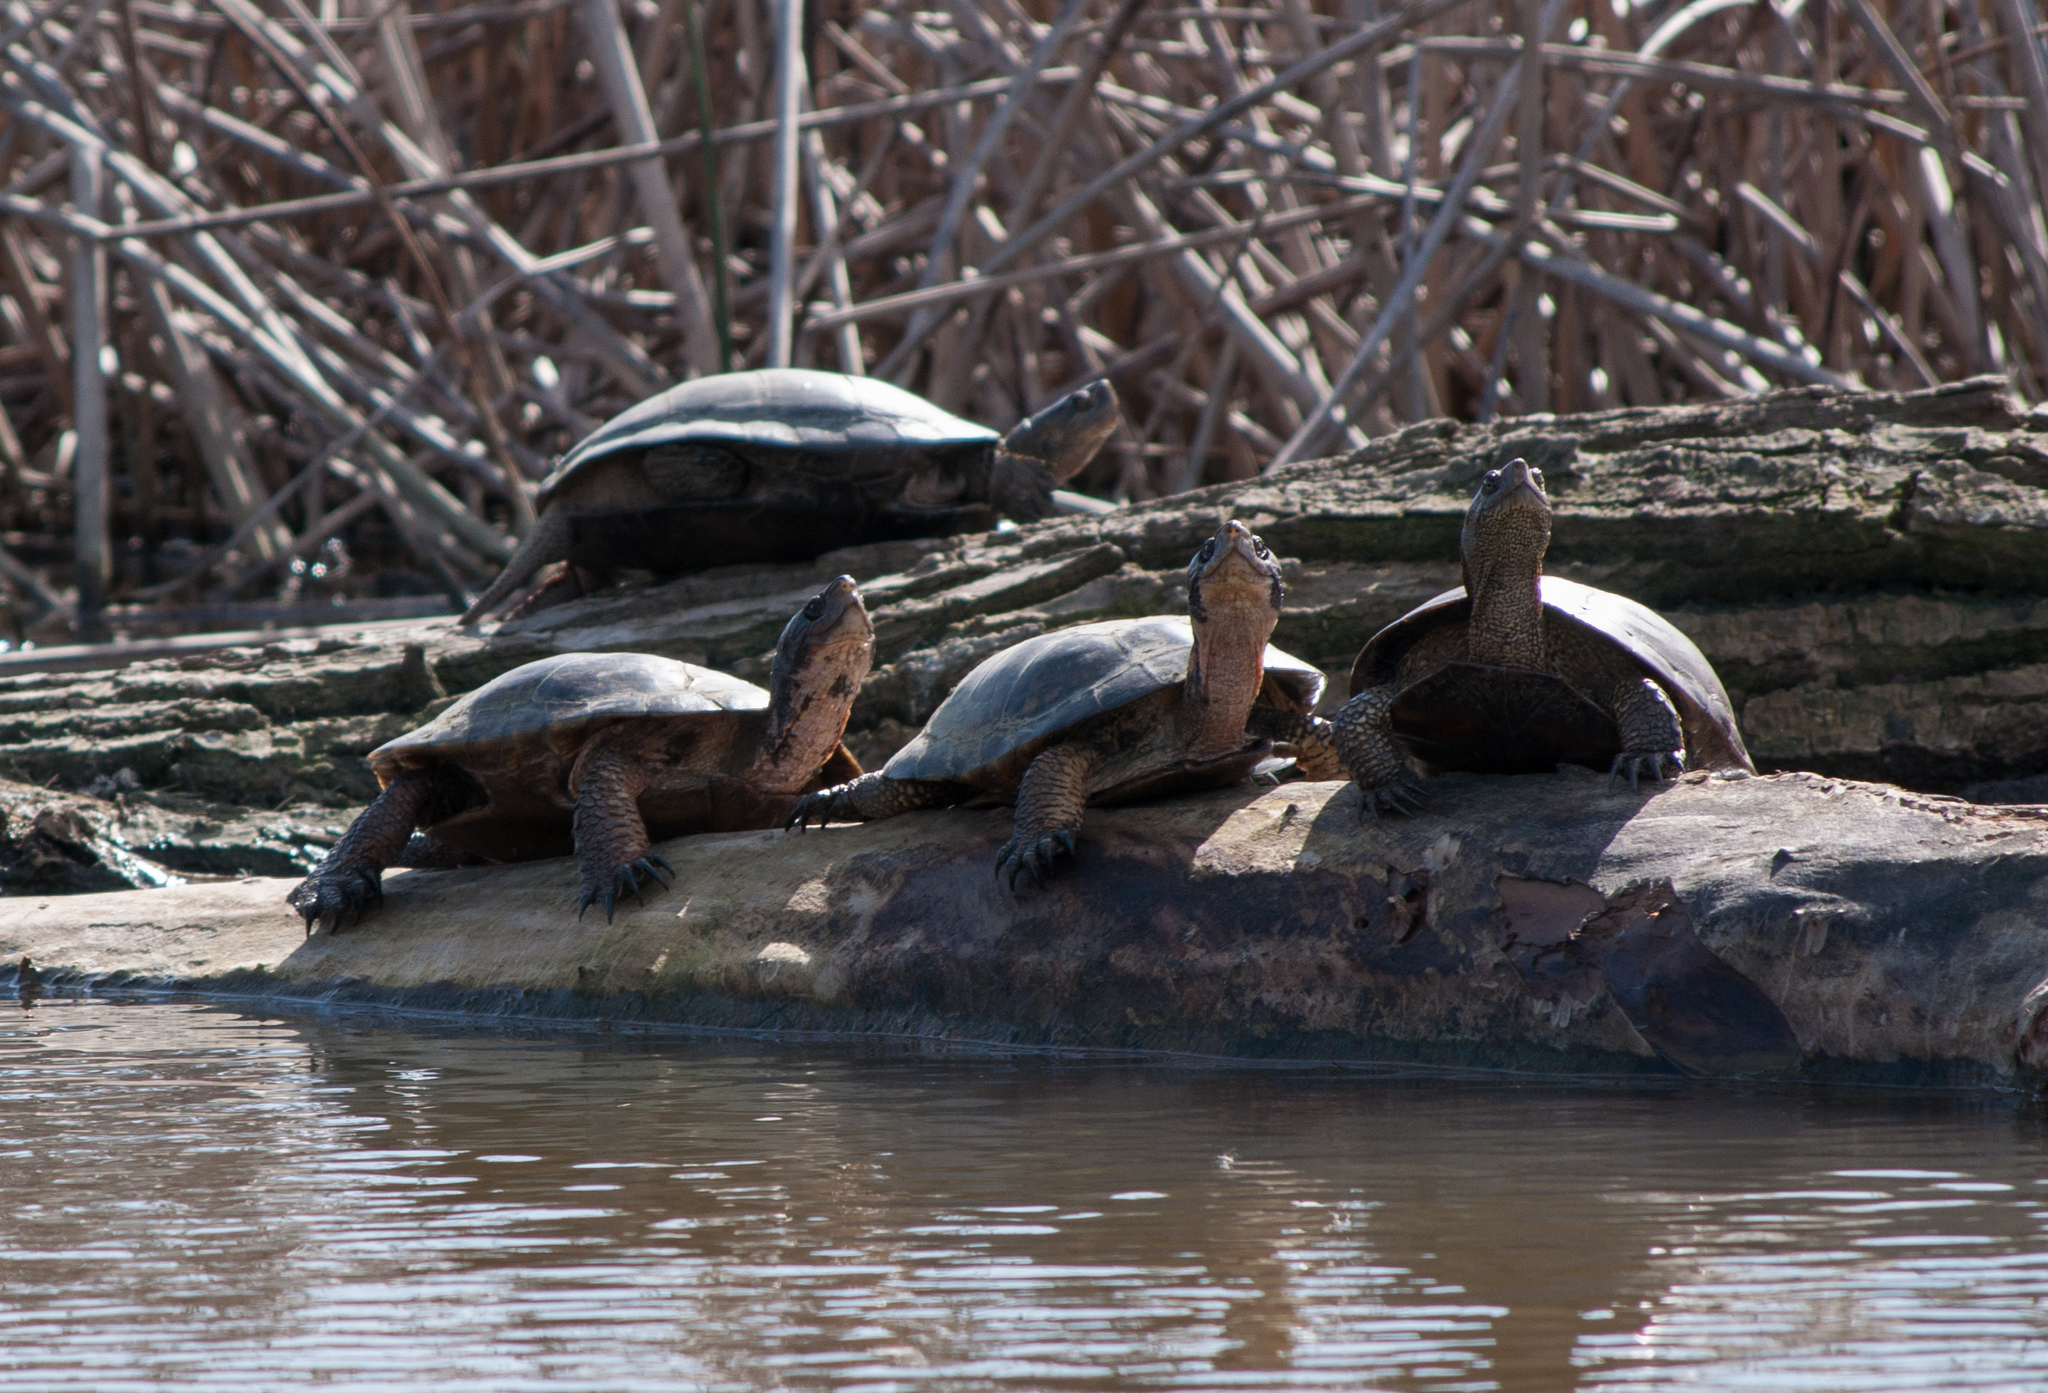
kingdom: Animalia
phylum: Chordata
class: Testudines
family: Emydidae
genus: Actinemys
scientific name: Actinemys marmorata
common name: Western pond turtle
